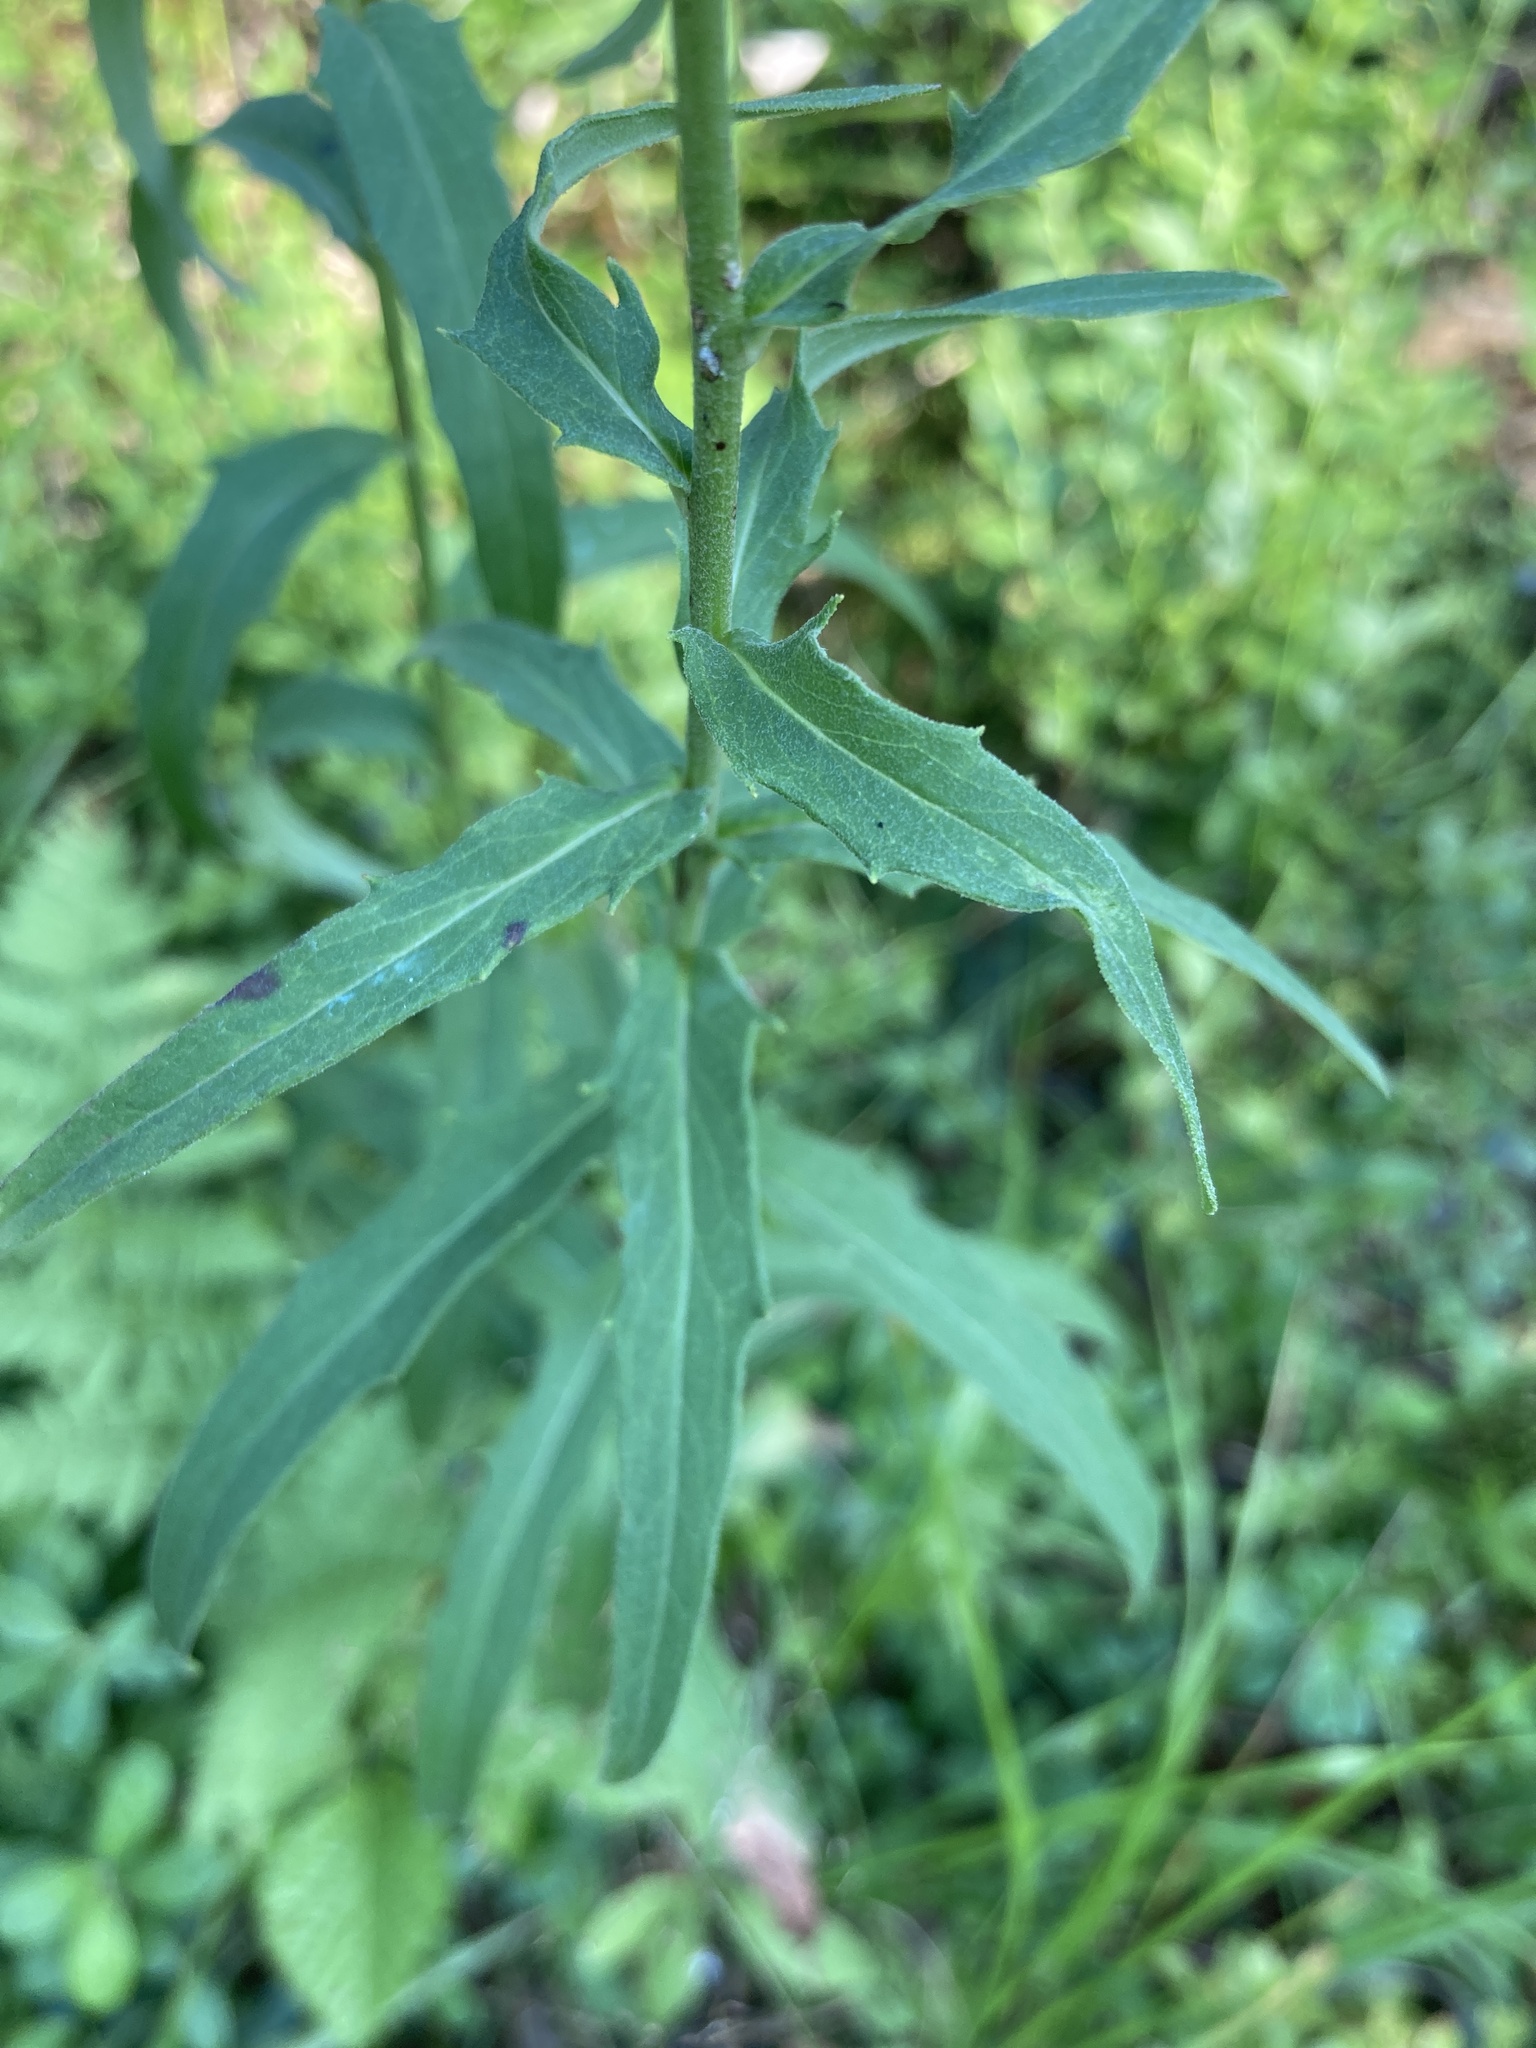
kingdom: Plantae
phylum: Tracheophyta
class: Magnoliopsida
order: Asterales
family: Asteraceae
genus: Hieracium
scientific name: Hieracium umbellatum
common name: Northern hawkweed
